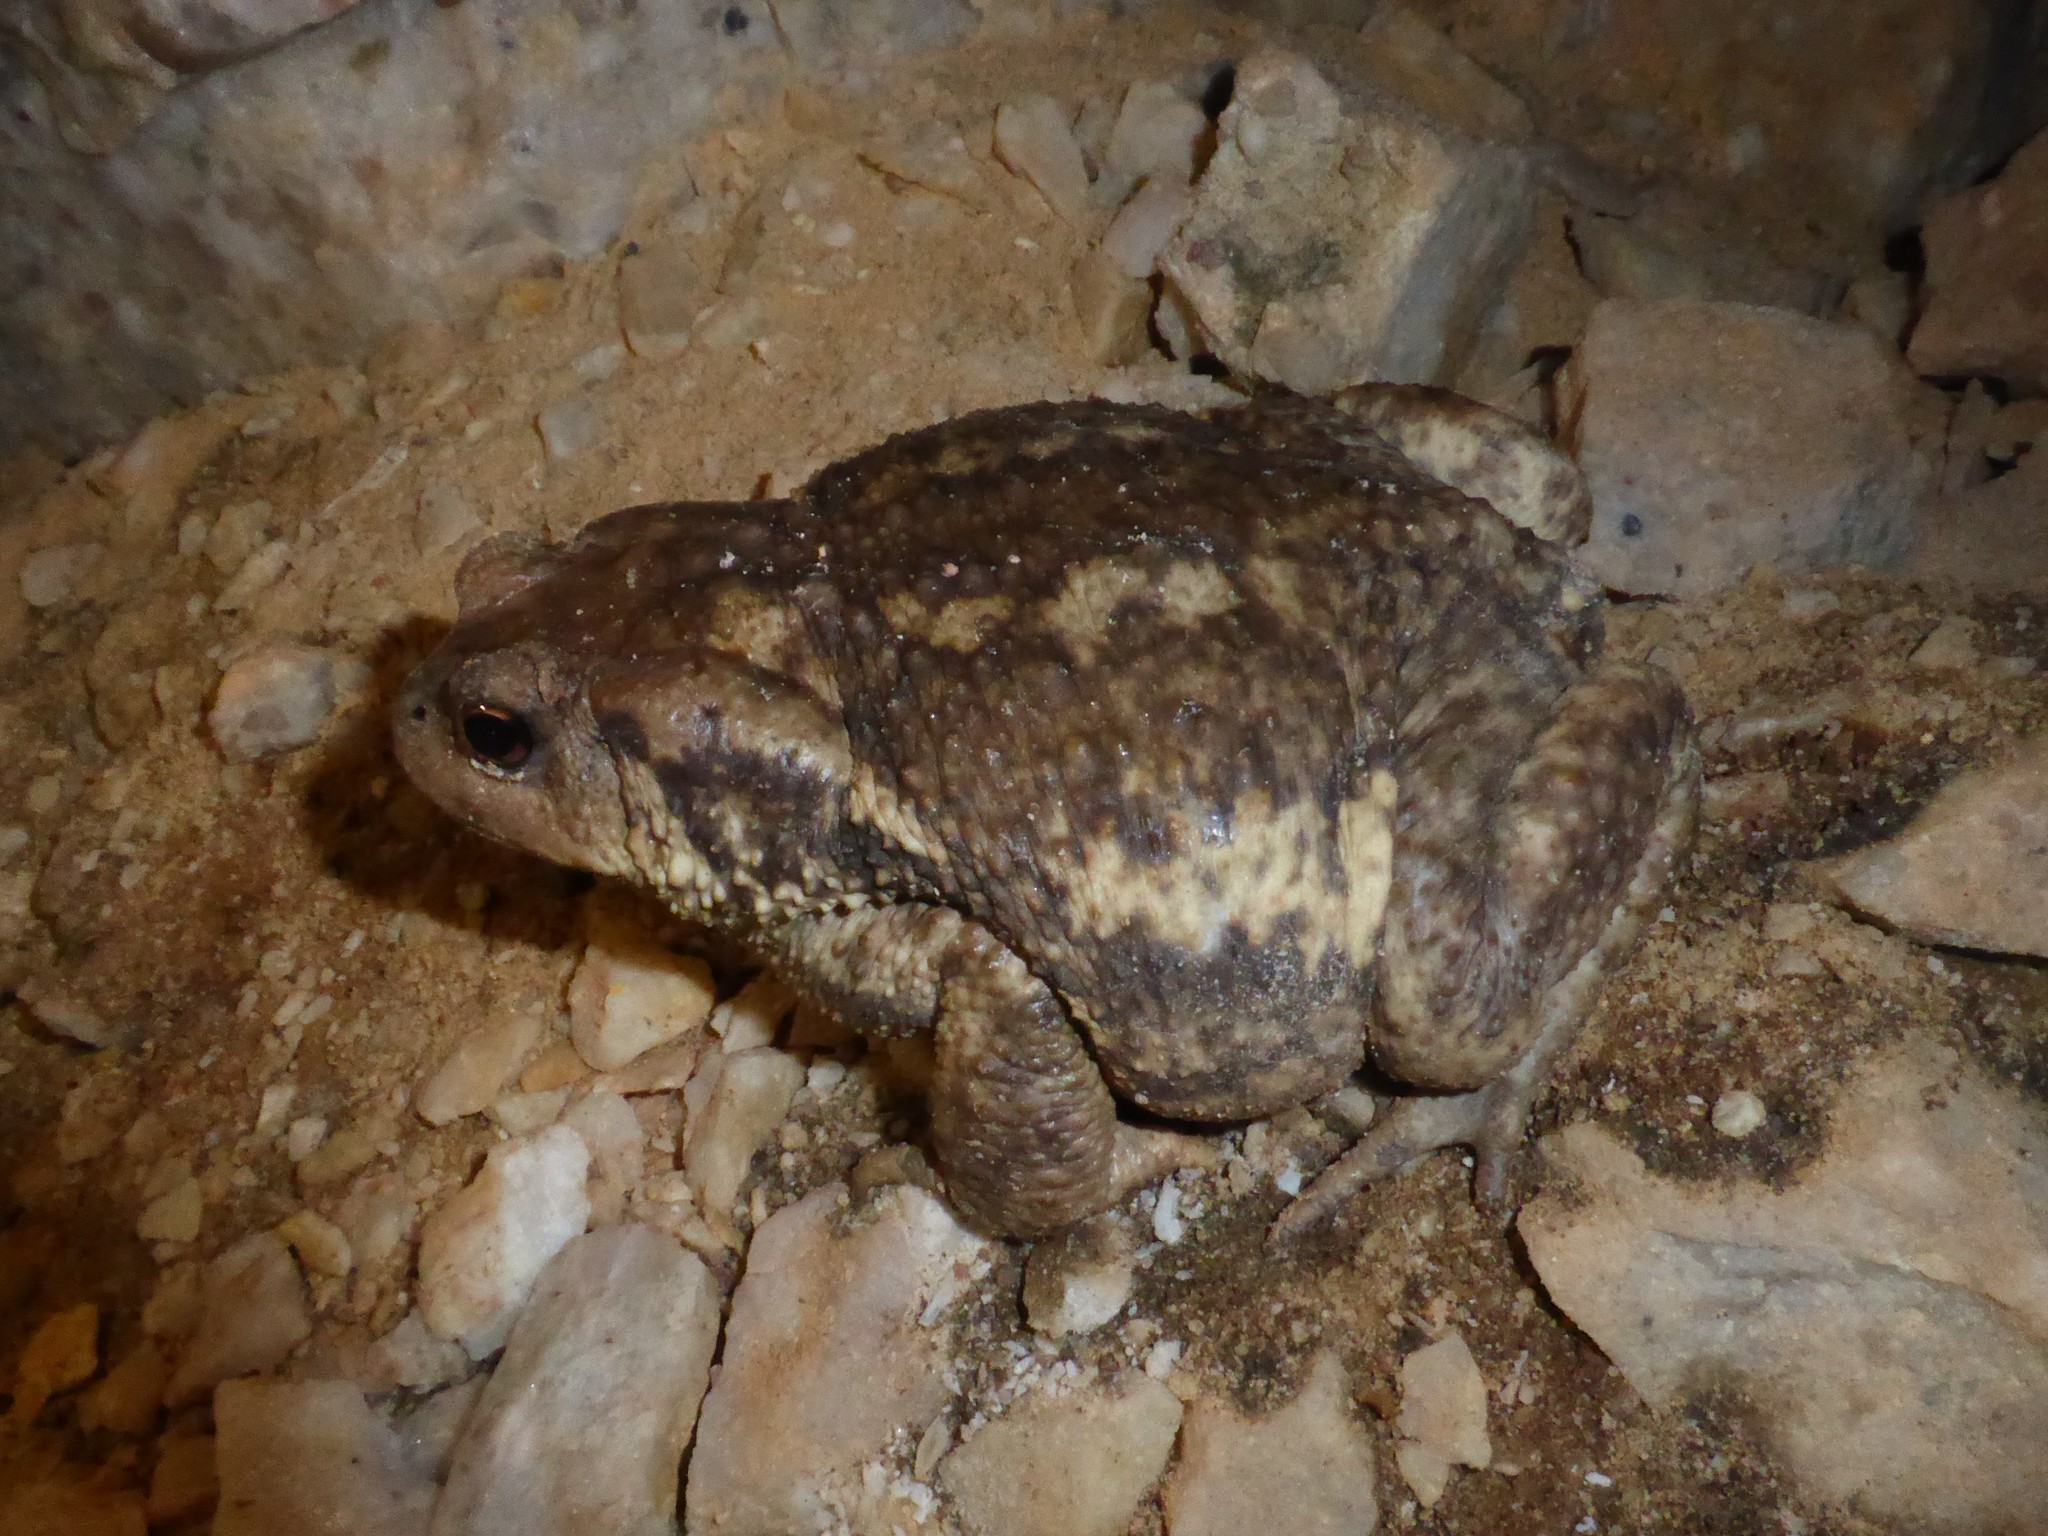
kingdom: Animalia
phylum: Chordata
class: Amphibia
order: Anura
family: Bufonidae
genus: Bufo
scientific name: Bufo spinosus
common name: Western common toad
